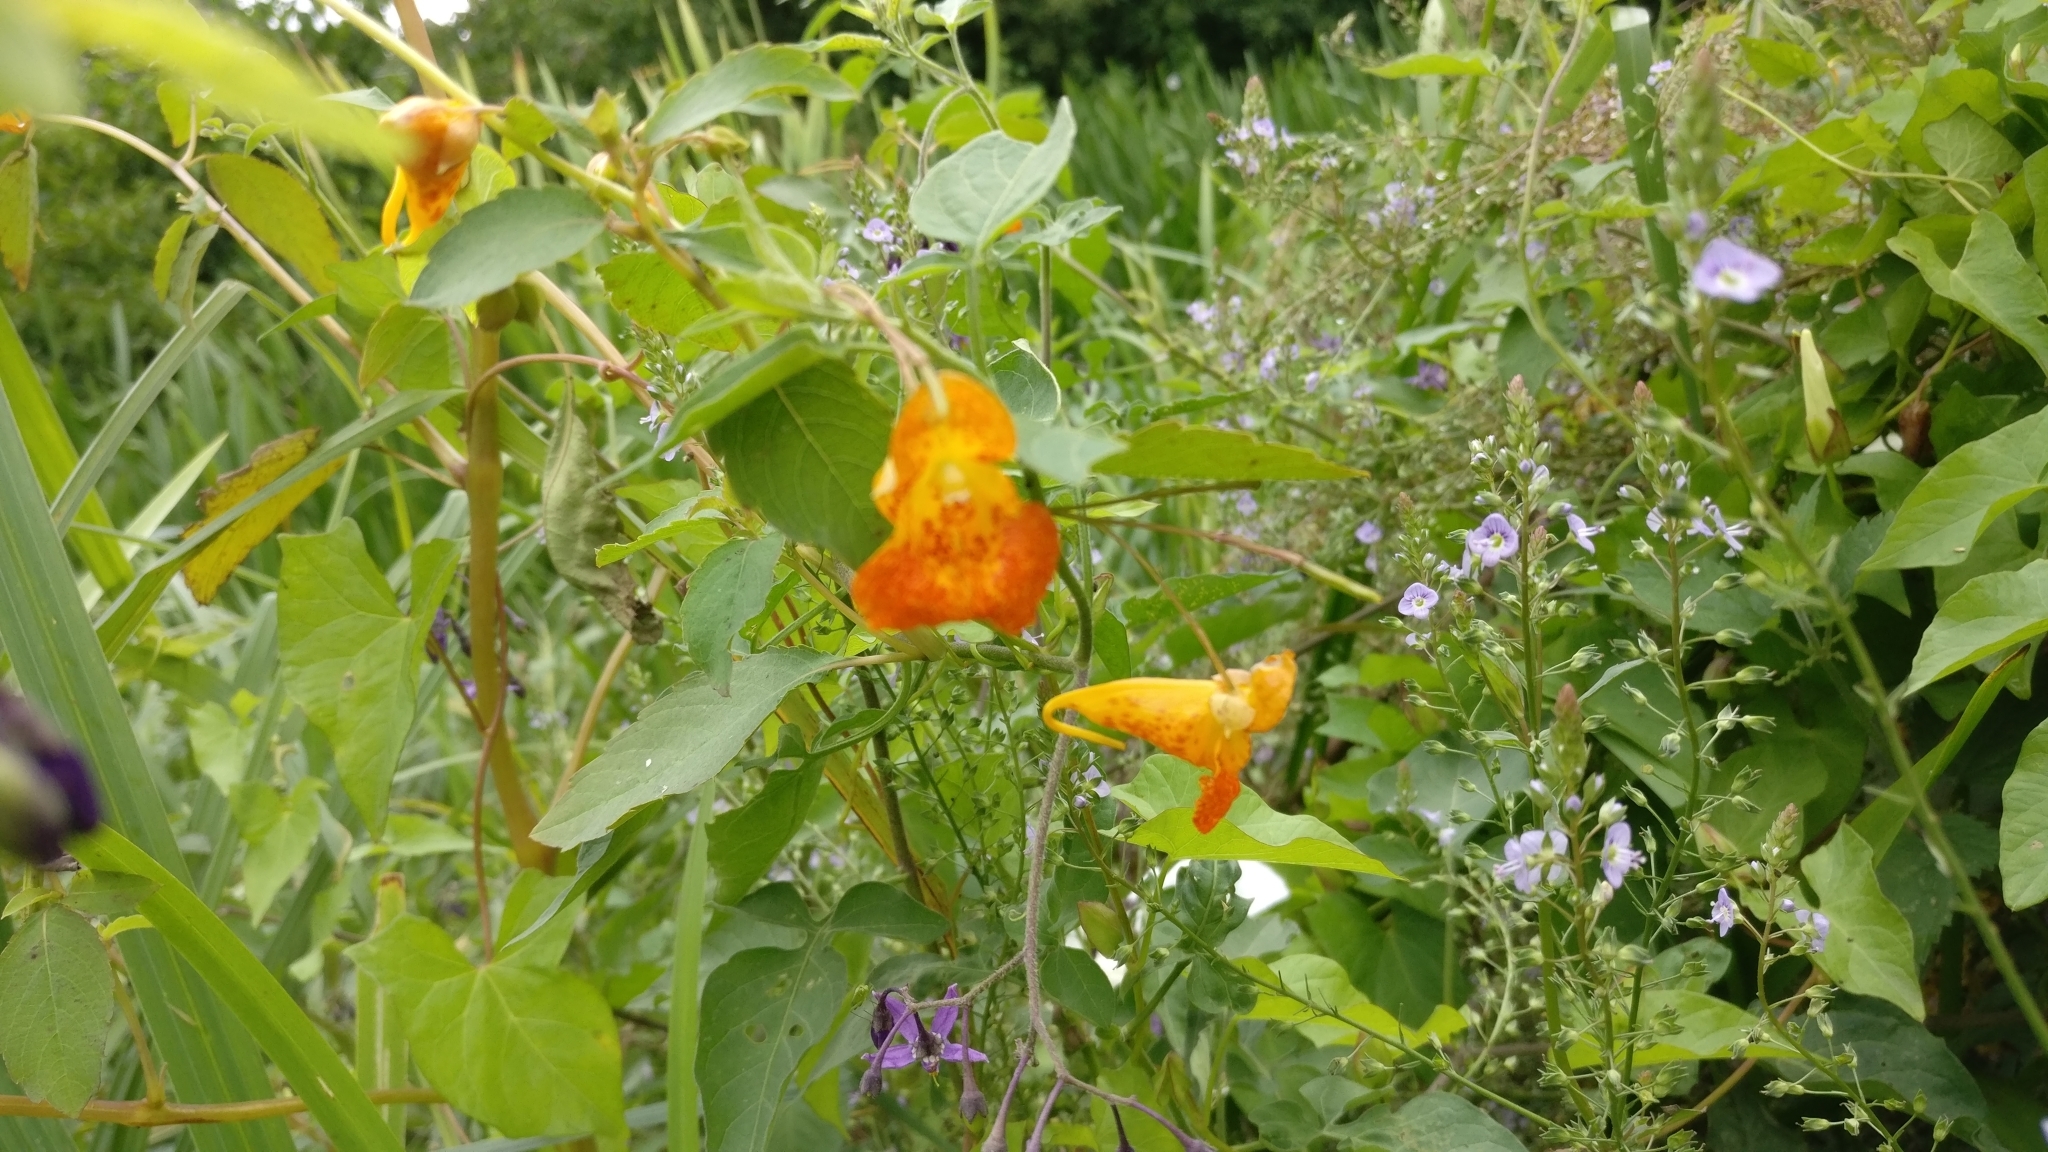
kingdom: Plantae
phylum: Tracheophyta
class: Magnoliopsida
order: Ericales
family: Balsaminaceae
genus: Impatiens
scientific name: Impatiens capensis
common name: Orange balsam
